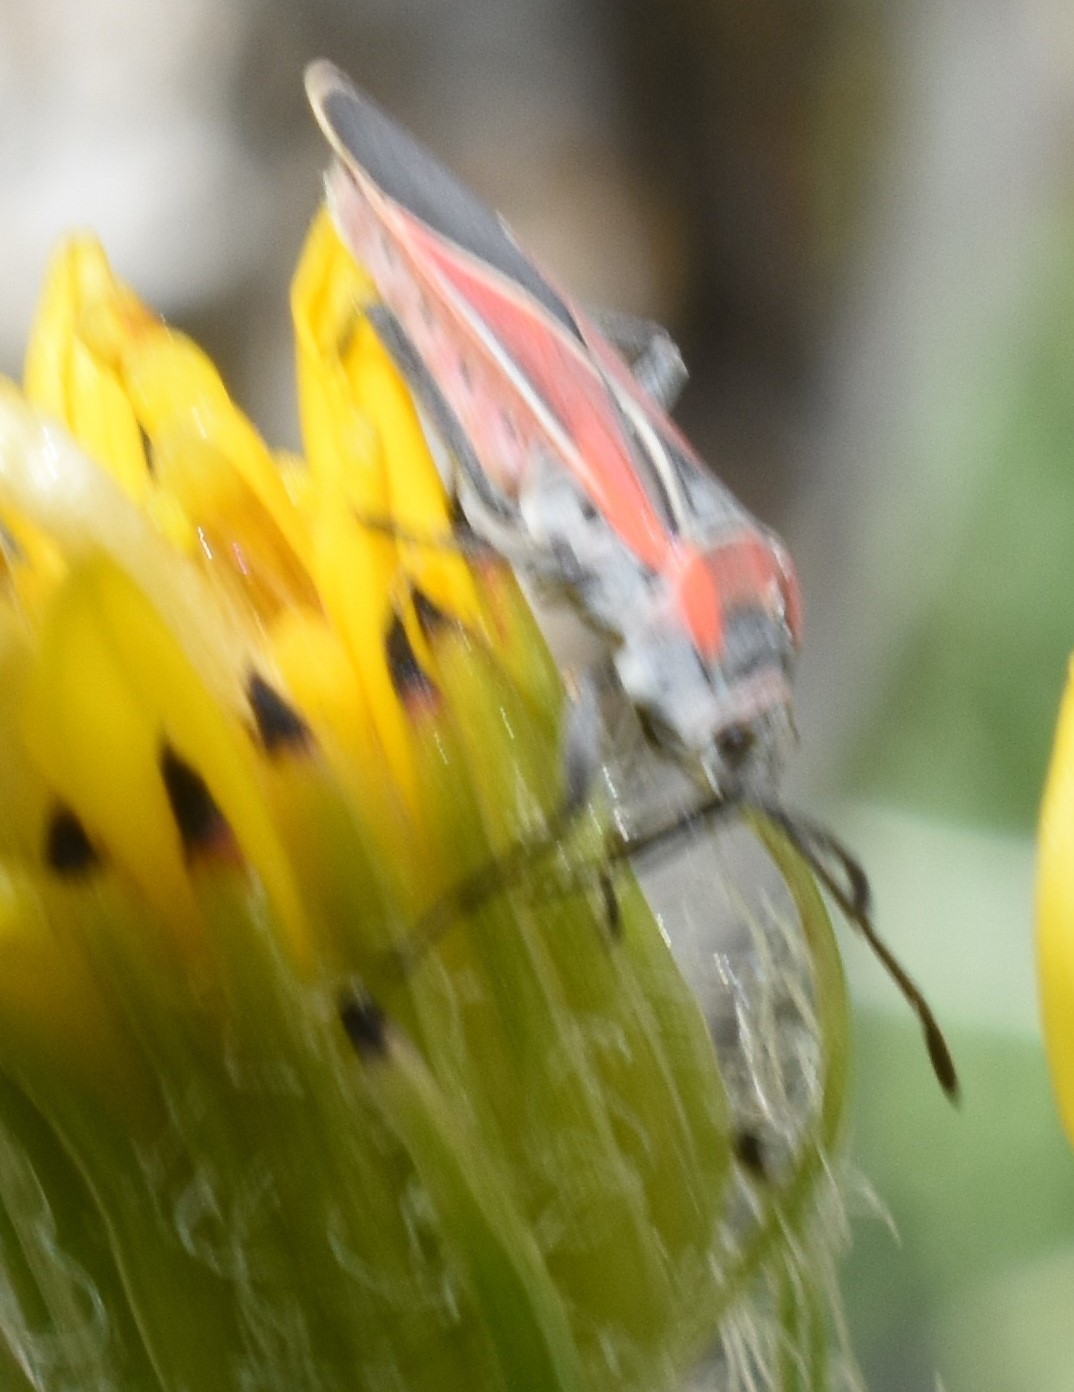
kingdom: Animalia
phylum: Arthropoda
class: Insecta
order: Hemiptera
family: Lygaeidae
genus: Neacoryphus
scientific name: Neacoryphus bicrucis
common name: Lygaeid bug
